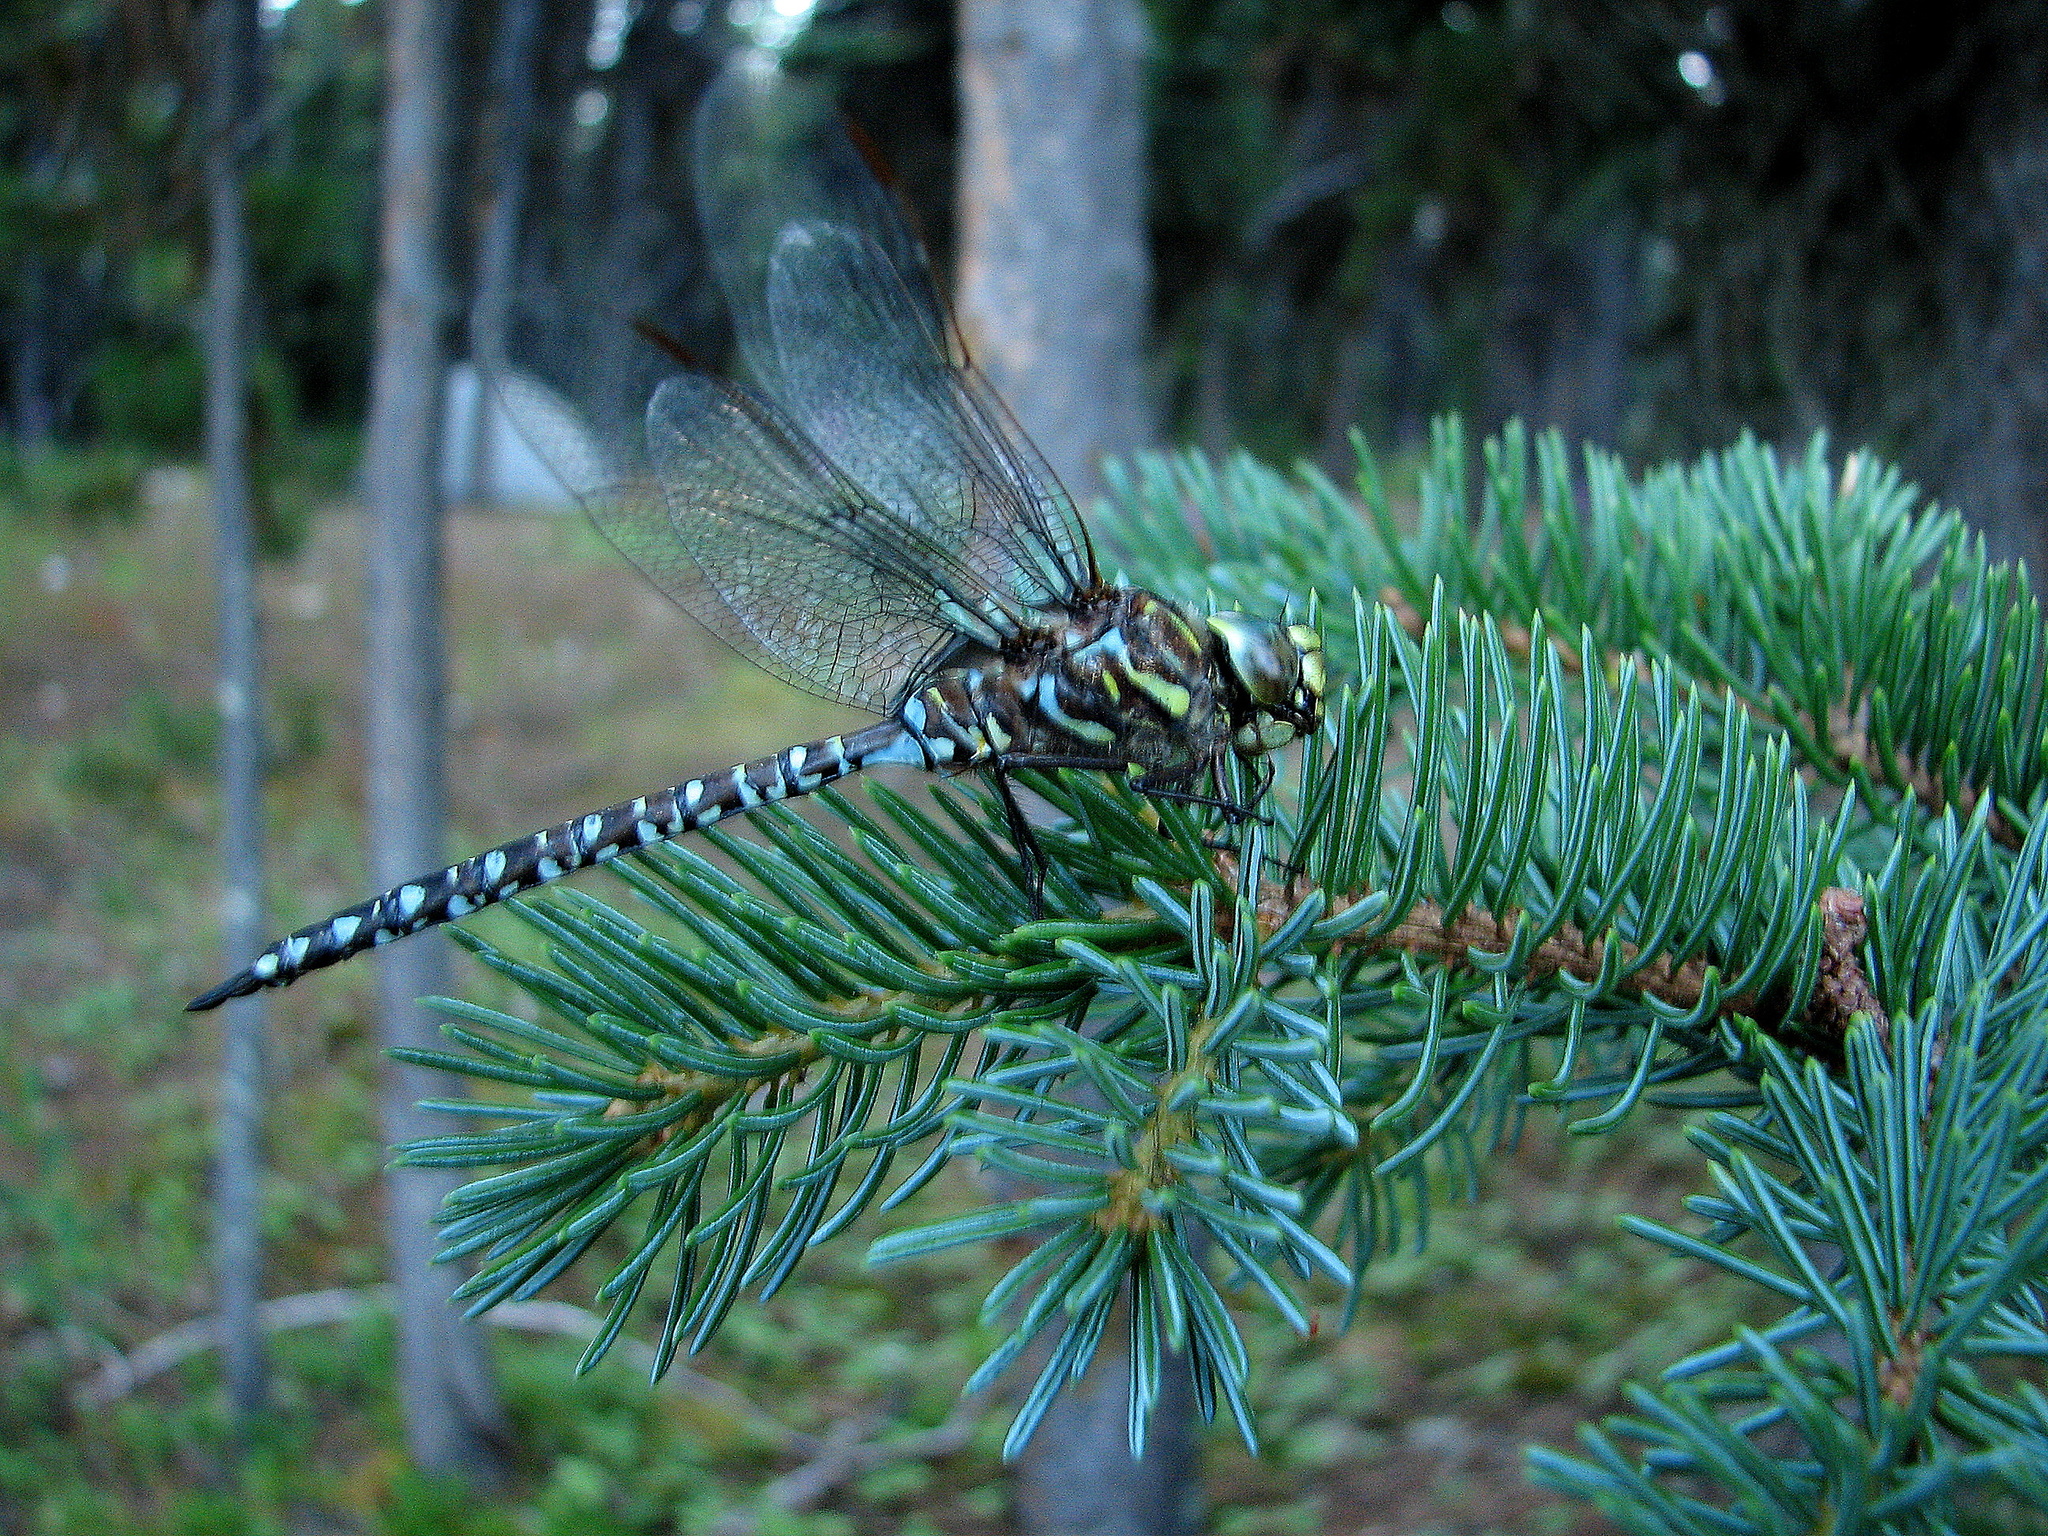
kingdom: Animalia
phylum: Arthropoda
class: Insecta
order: Odonata
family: Aeshnidae
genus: Aeshna
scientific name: Aeshna subarctica
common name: Subarctic darner
